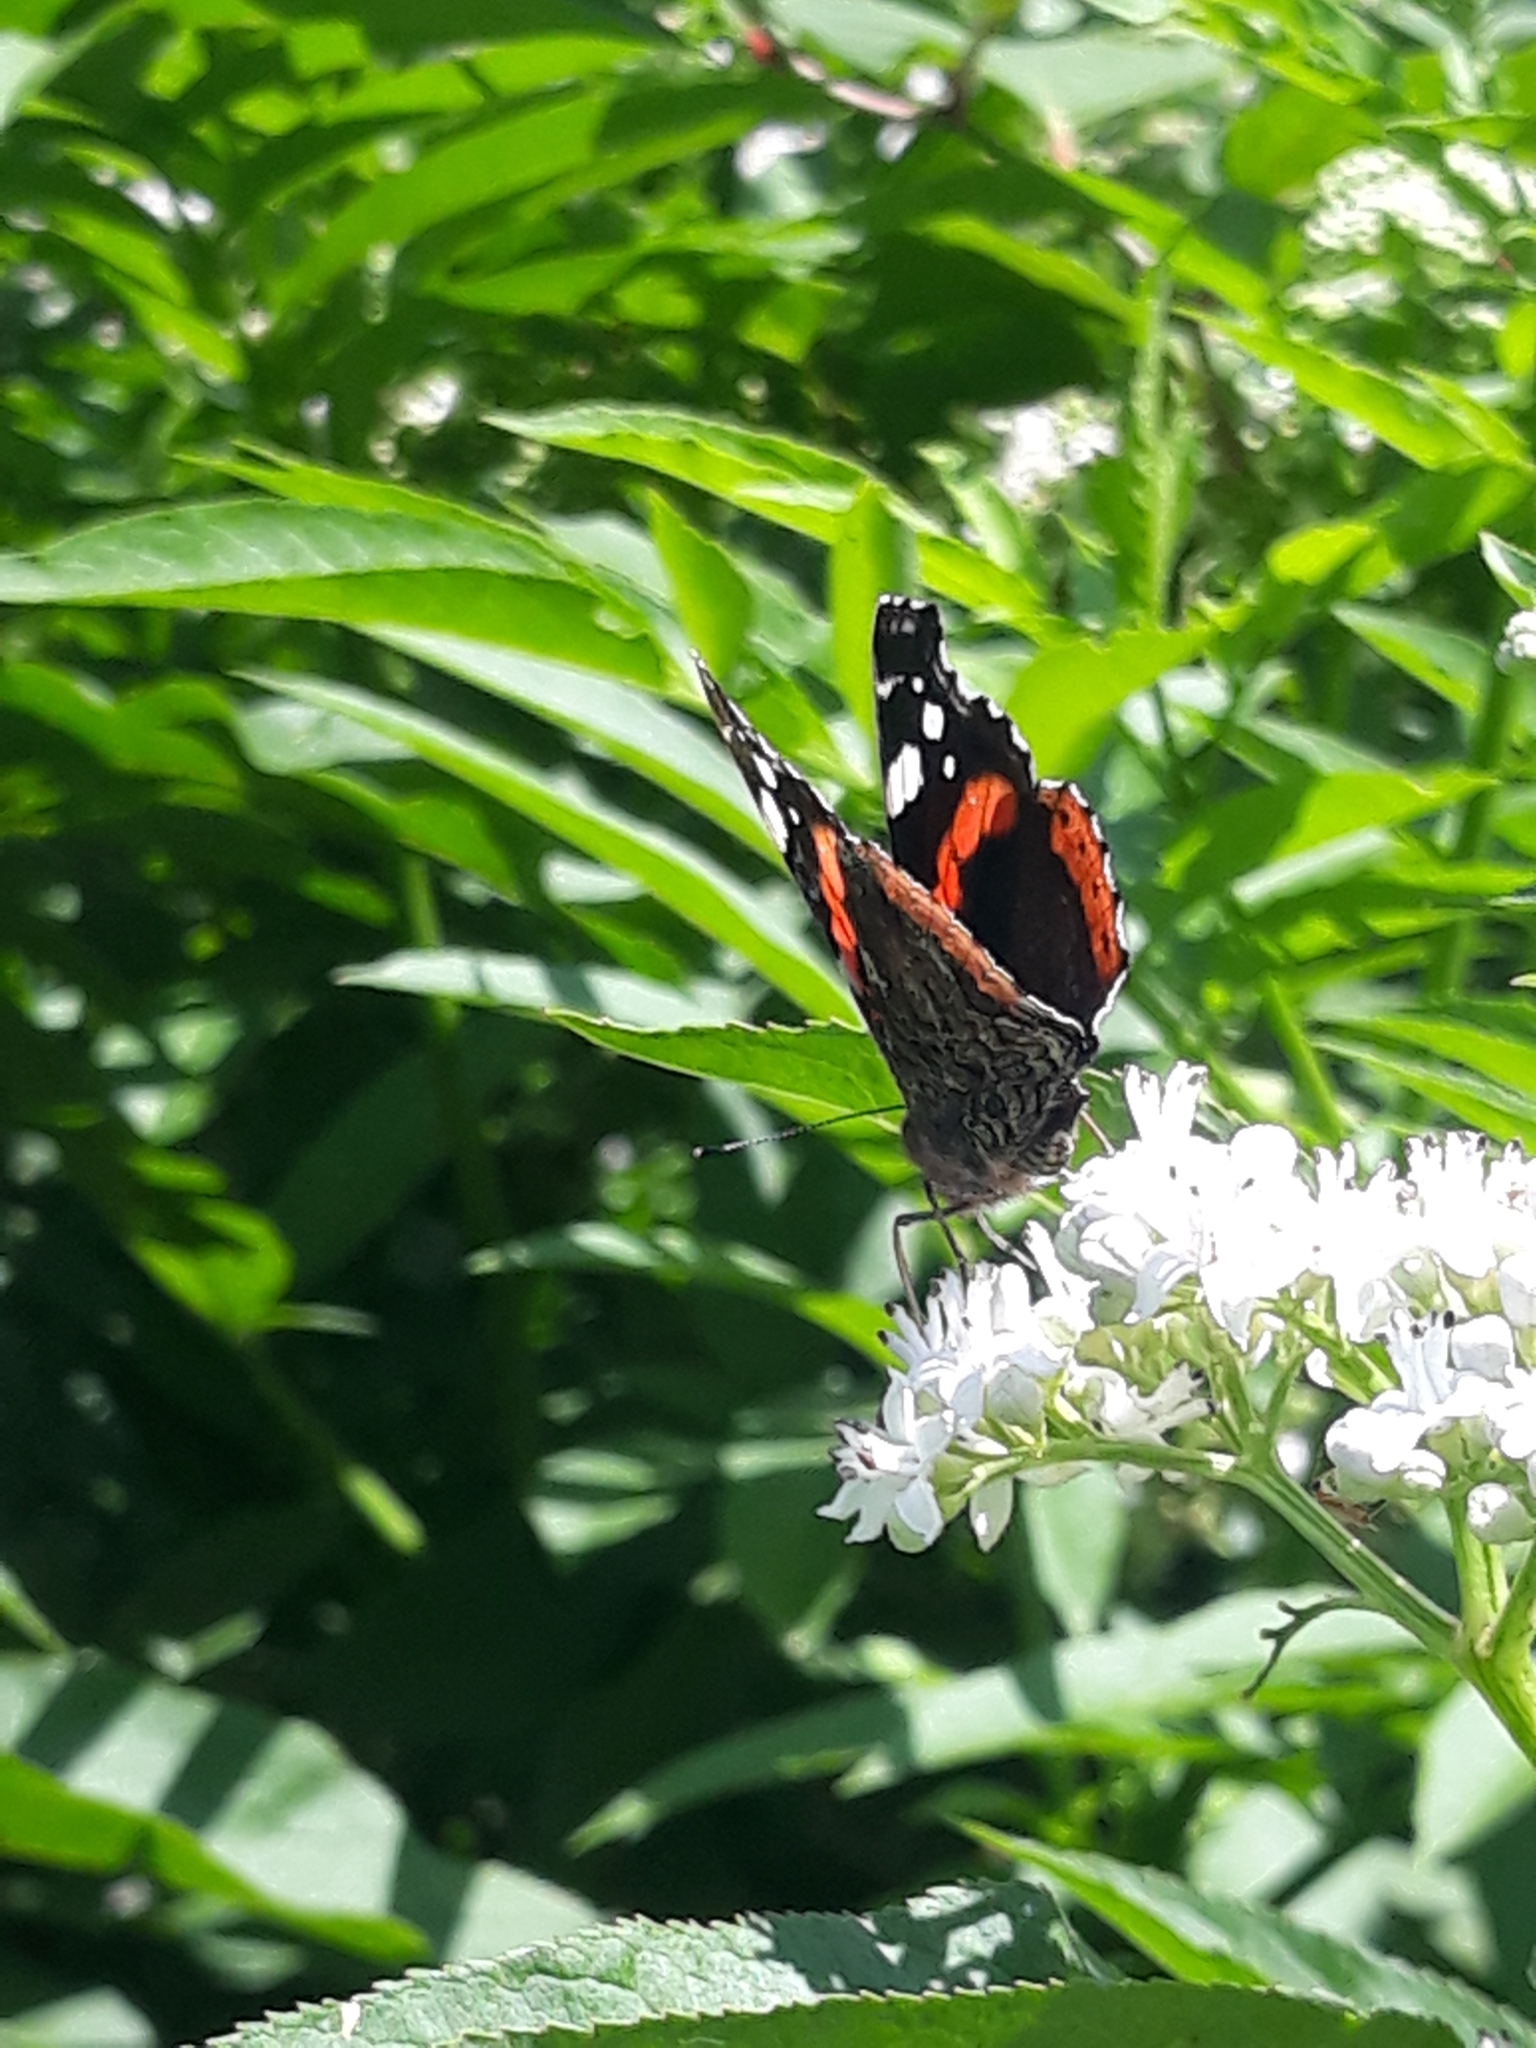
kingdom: Animalia
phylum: Arthropoda
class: Insecta
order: Lepidoptera
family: Nymphalidae
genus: Vanessa
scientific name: Vanessa atalanta
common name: Red admiral
